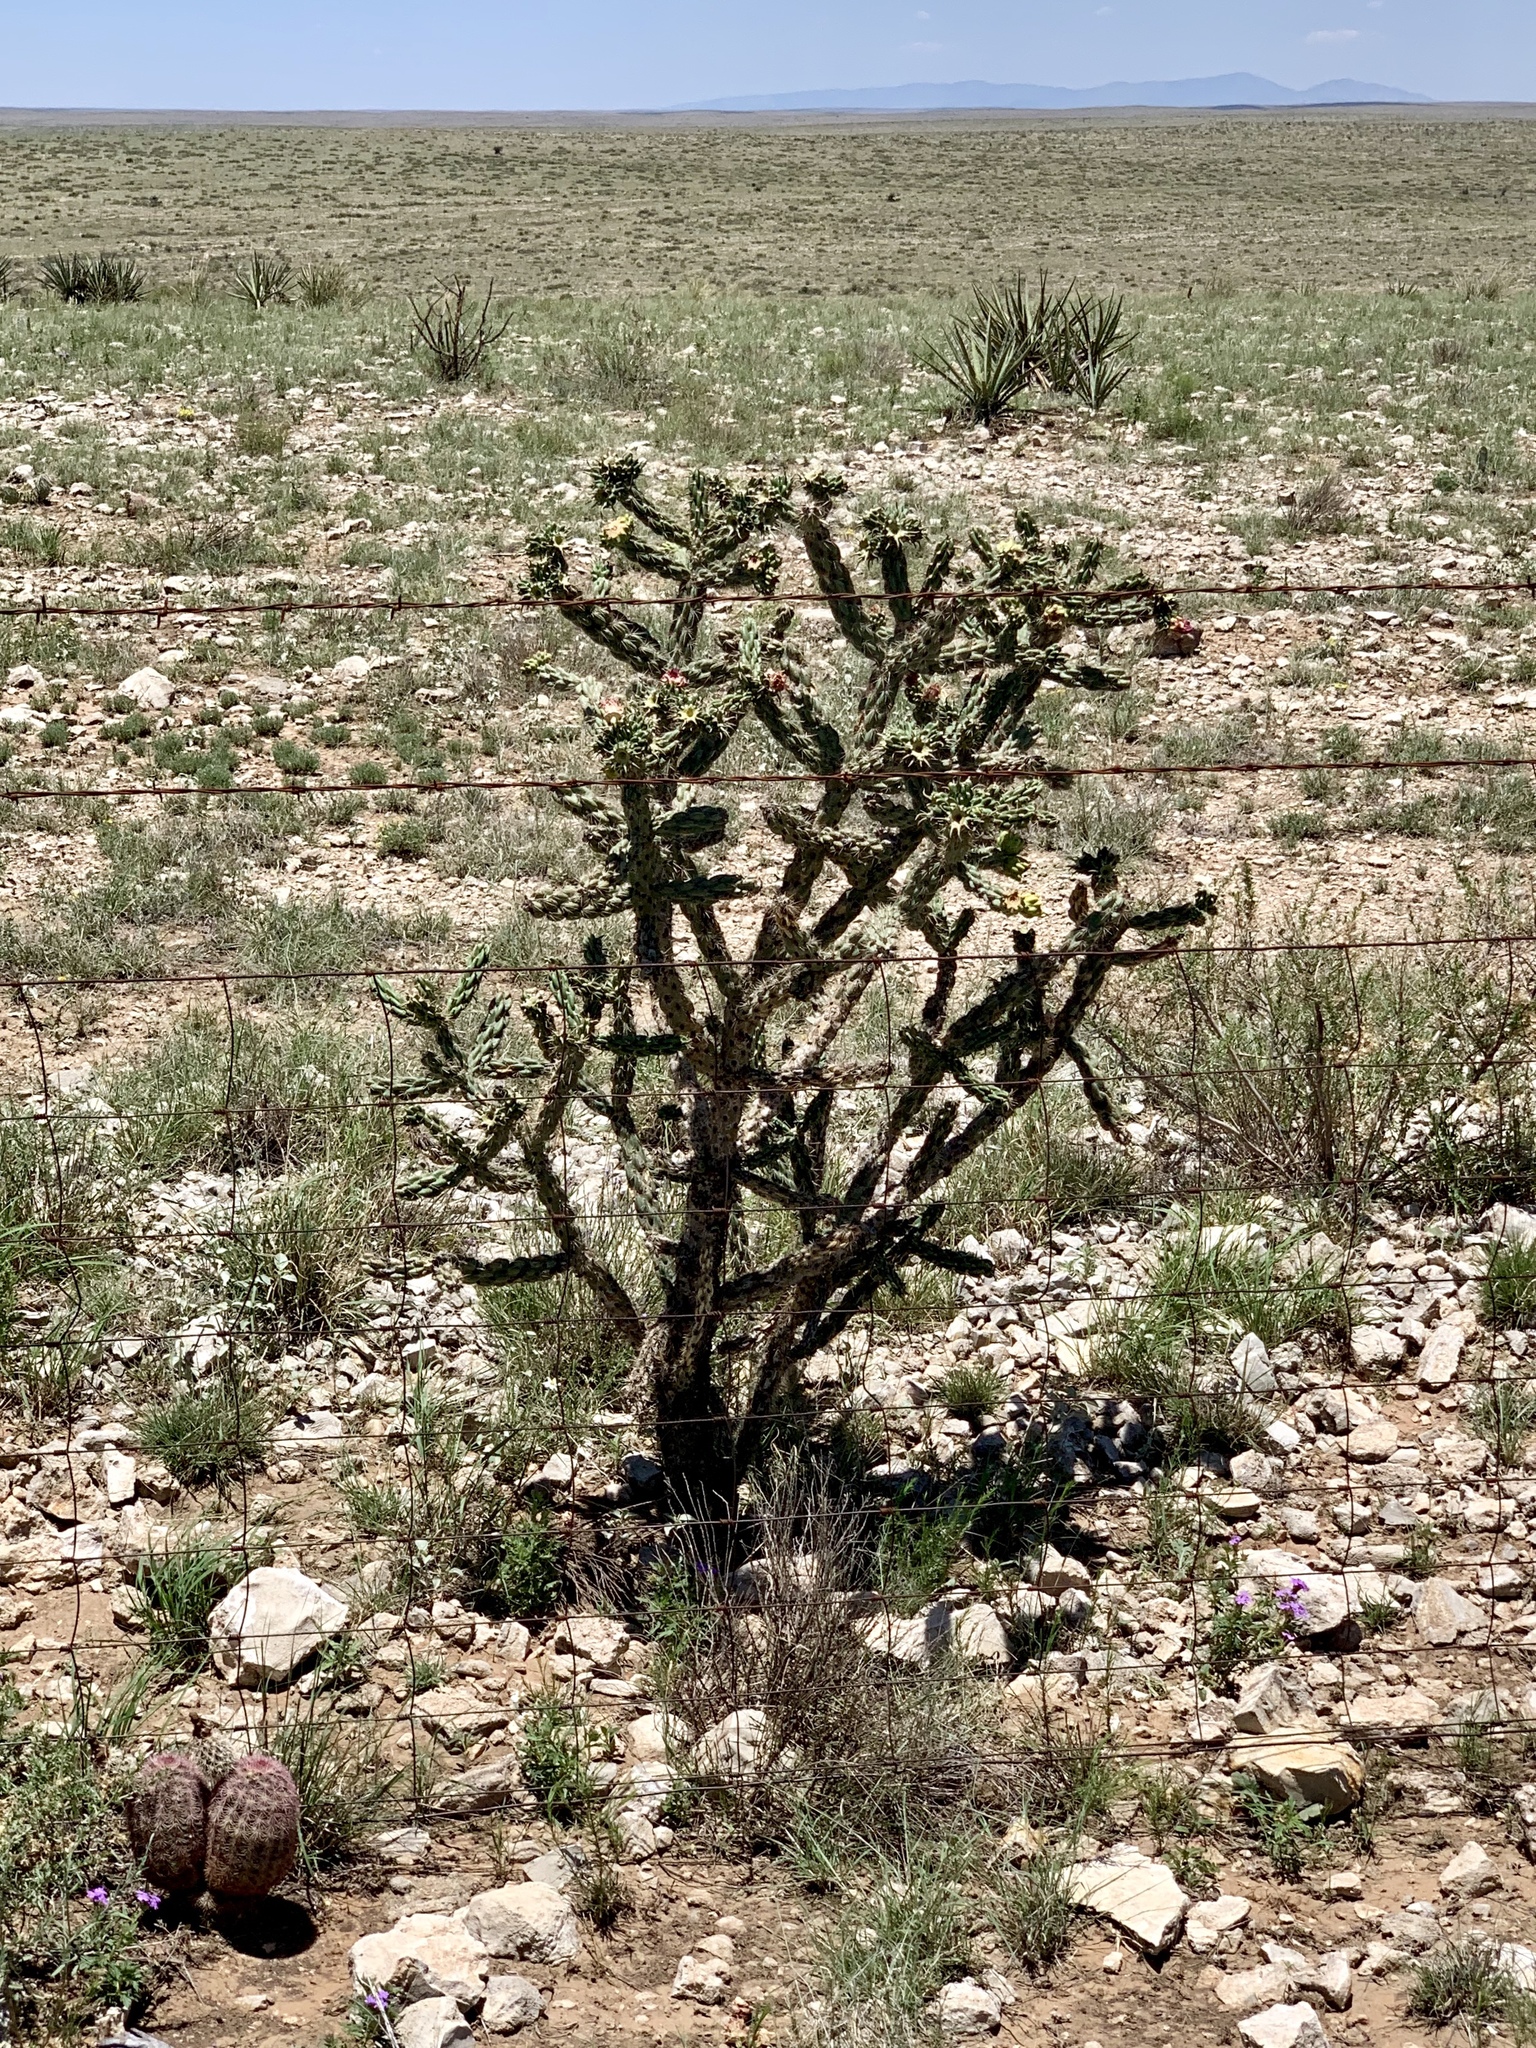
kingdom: Plantae
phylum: Tracheophyta
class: Magnoliopsida
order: Caryophyllales
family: Cactaceae
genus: Cylindropuntia
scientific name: Cylindropuntia imbricata
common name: Candelabrum cactus
